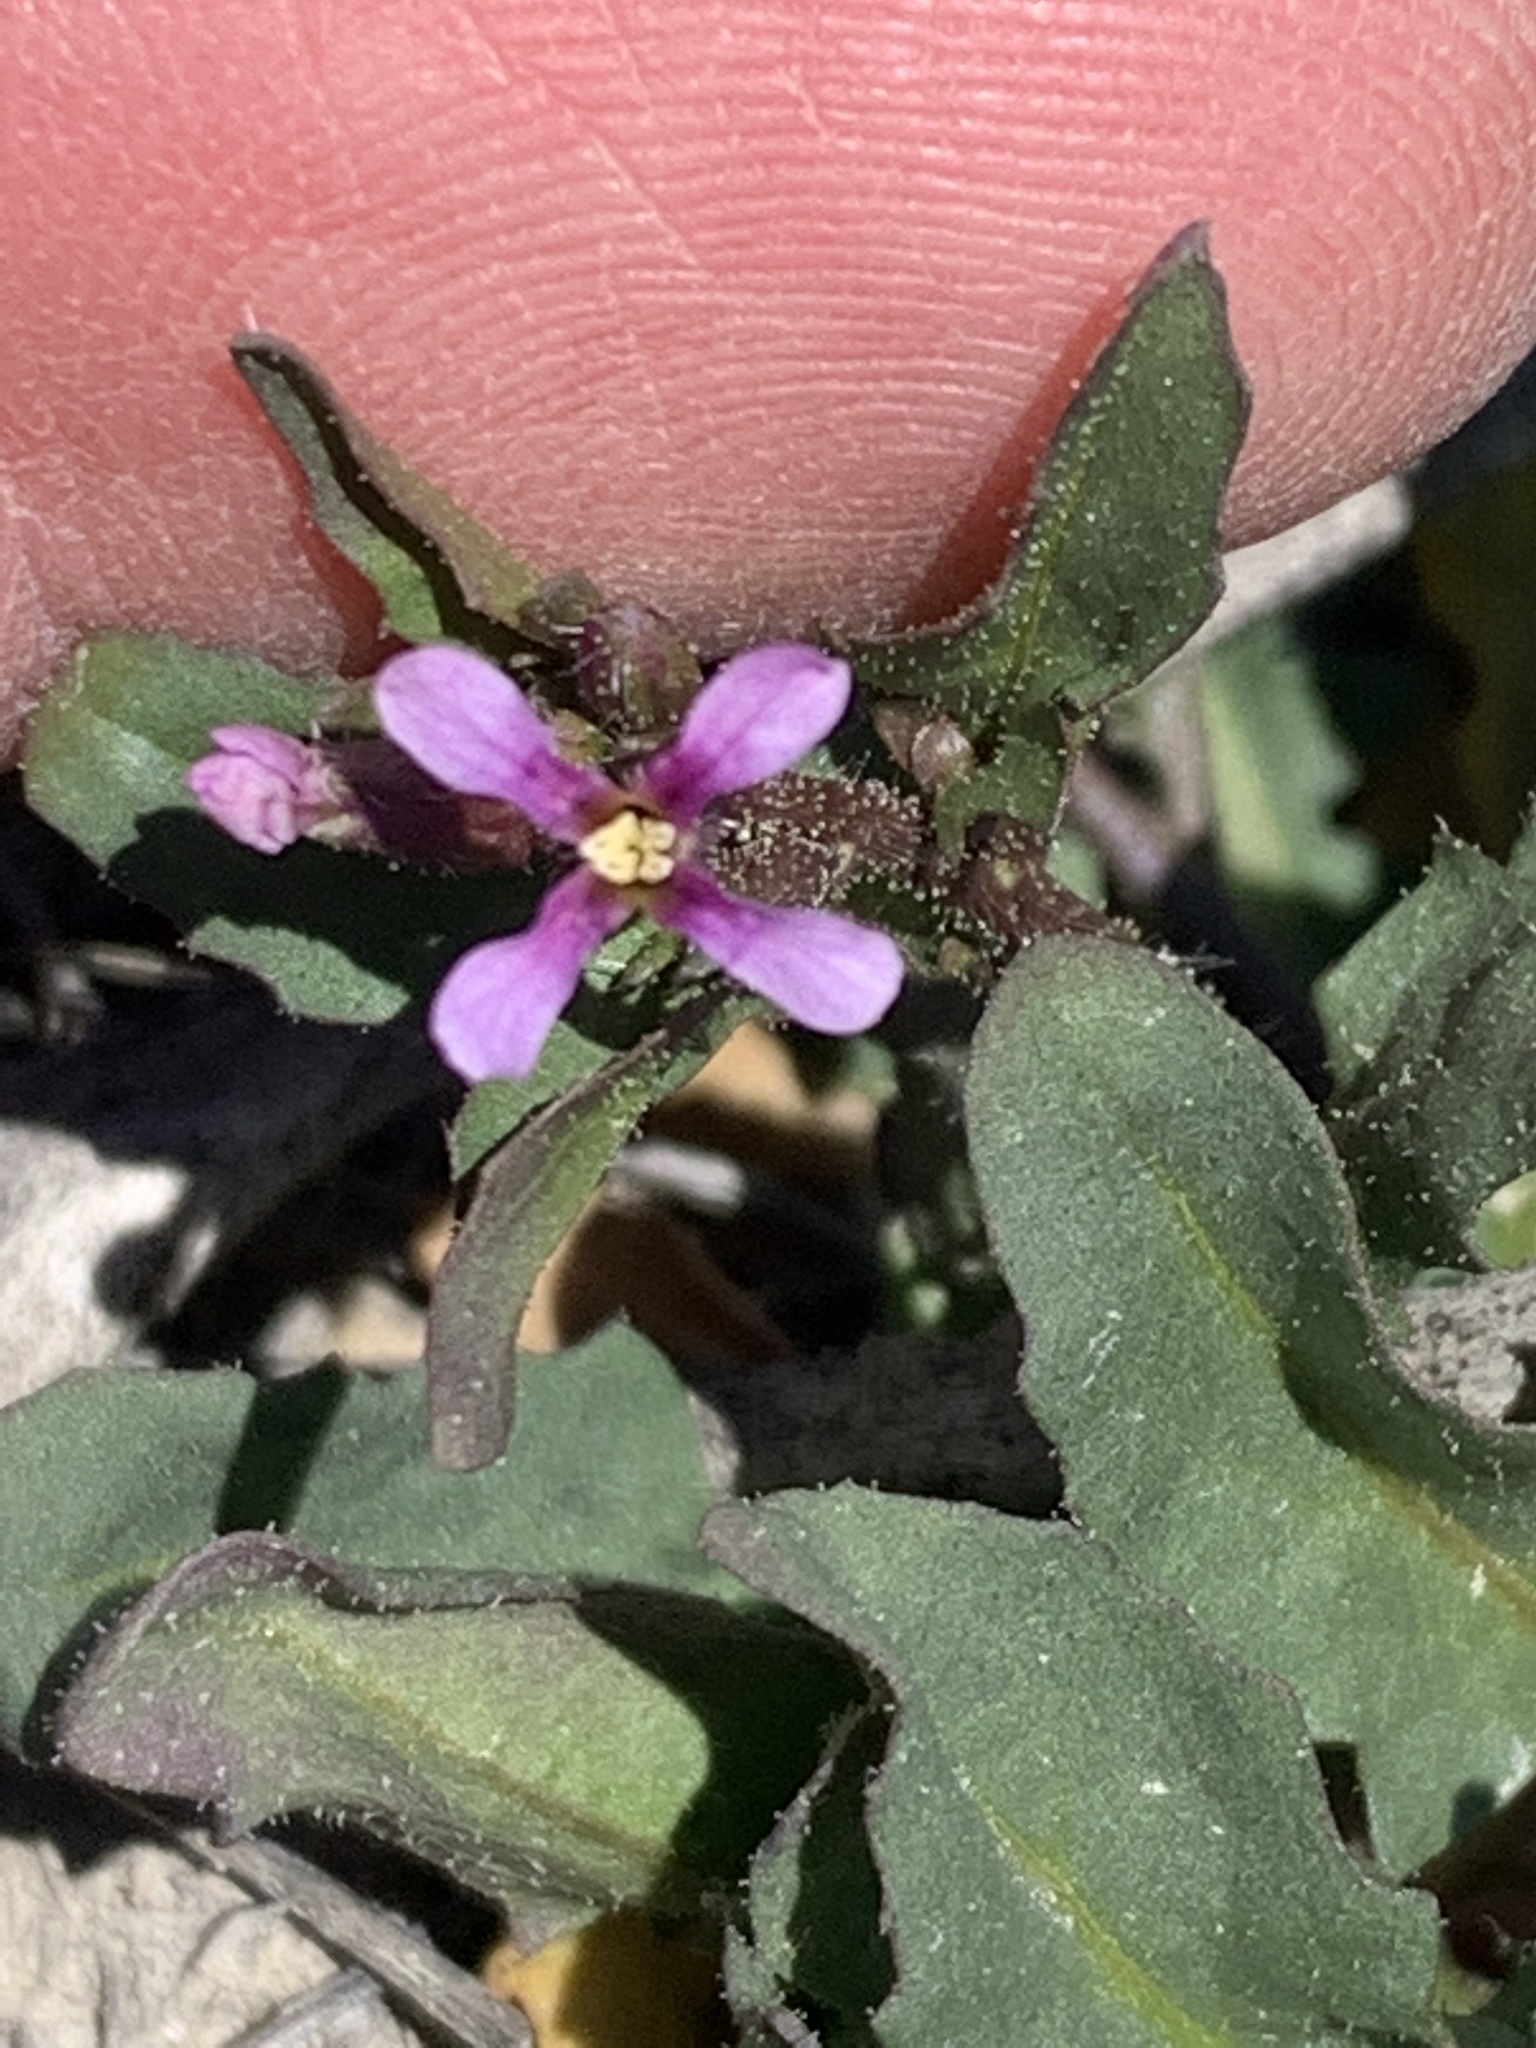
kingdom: Plantae
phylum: Tracheophyta
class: Magnoliopsida
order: Brassicales
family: Brassicaceae
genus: Chorispora
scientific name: Chorispora tenella
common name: Crossflower
